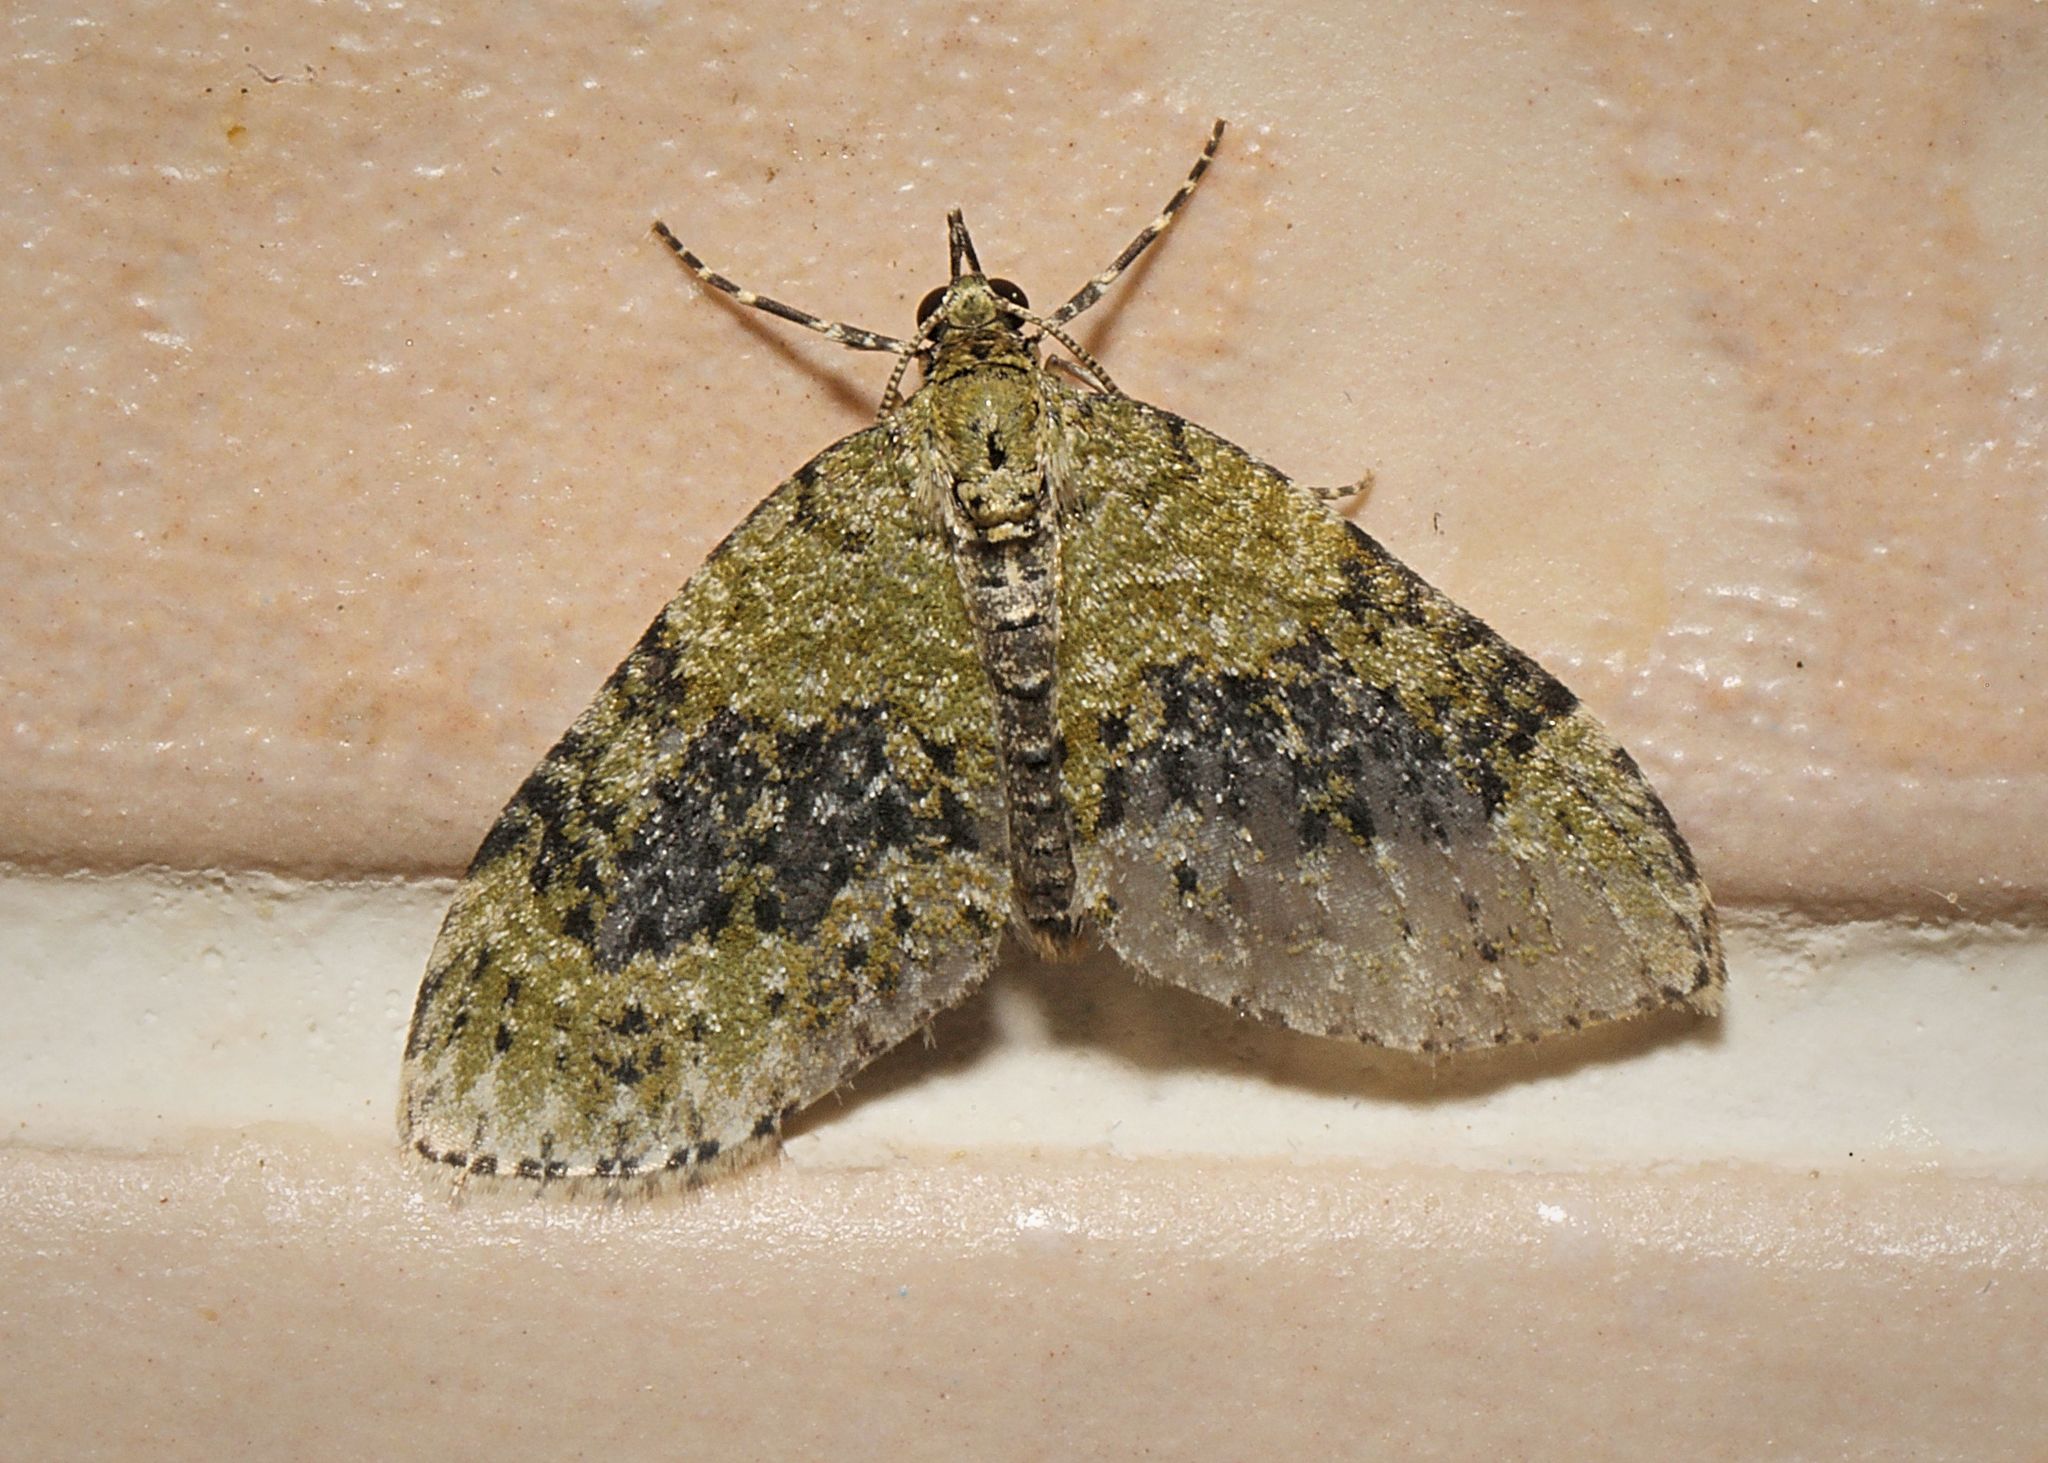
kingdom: Animalia
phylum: Arthropoda
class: Insecta
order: Lepidoptera
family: Geometridae
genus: Acasis
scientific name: Acasis viretata
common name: Yellow-barred brindle
